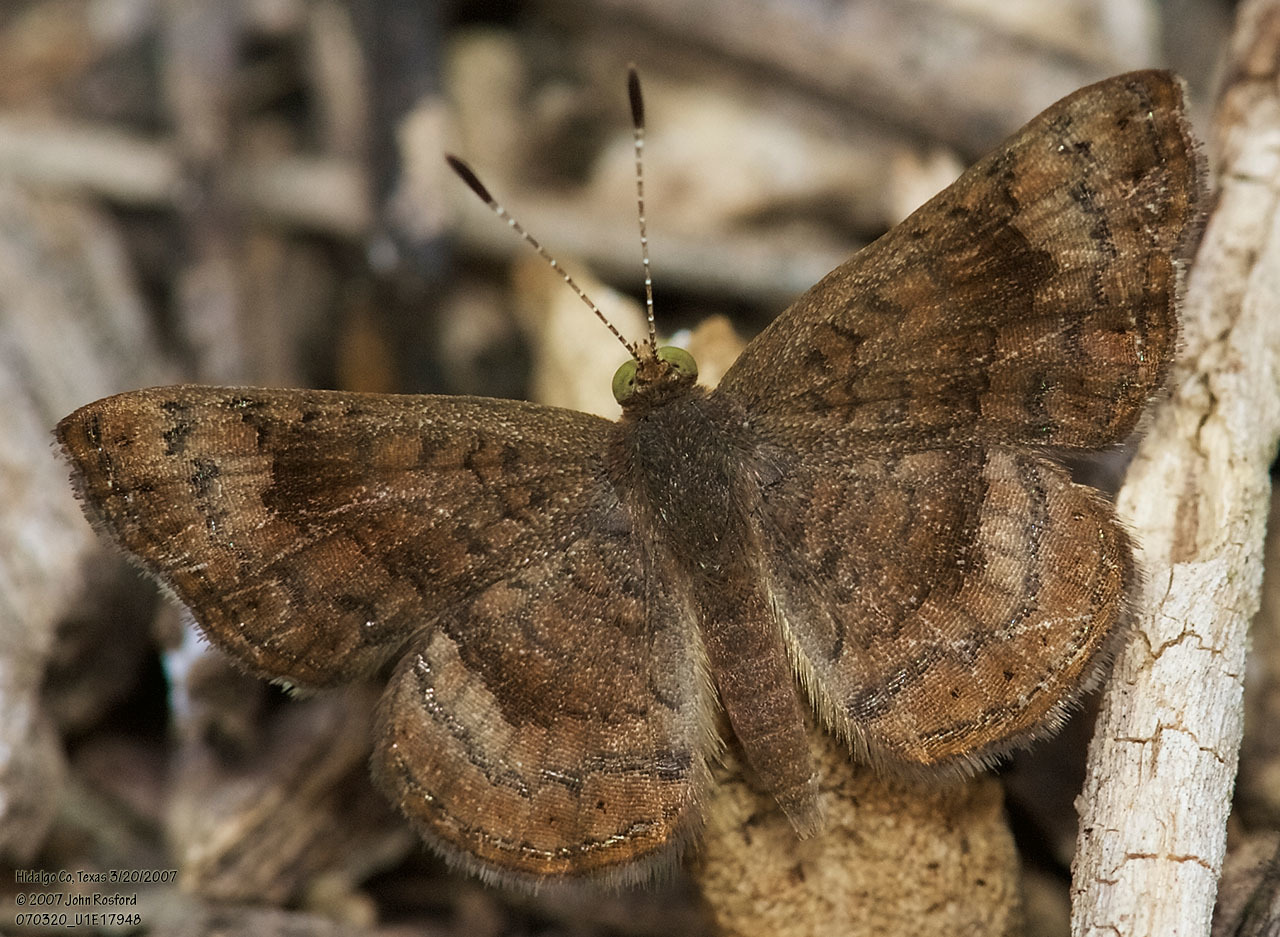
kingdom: Animalia
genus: Calephelis
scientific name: Calephelis nemesis
